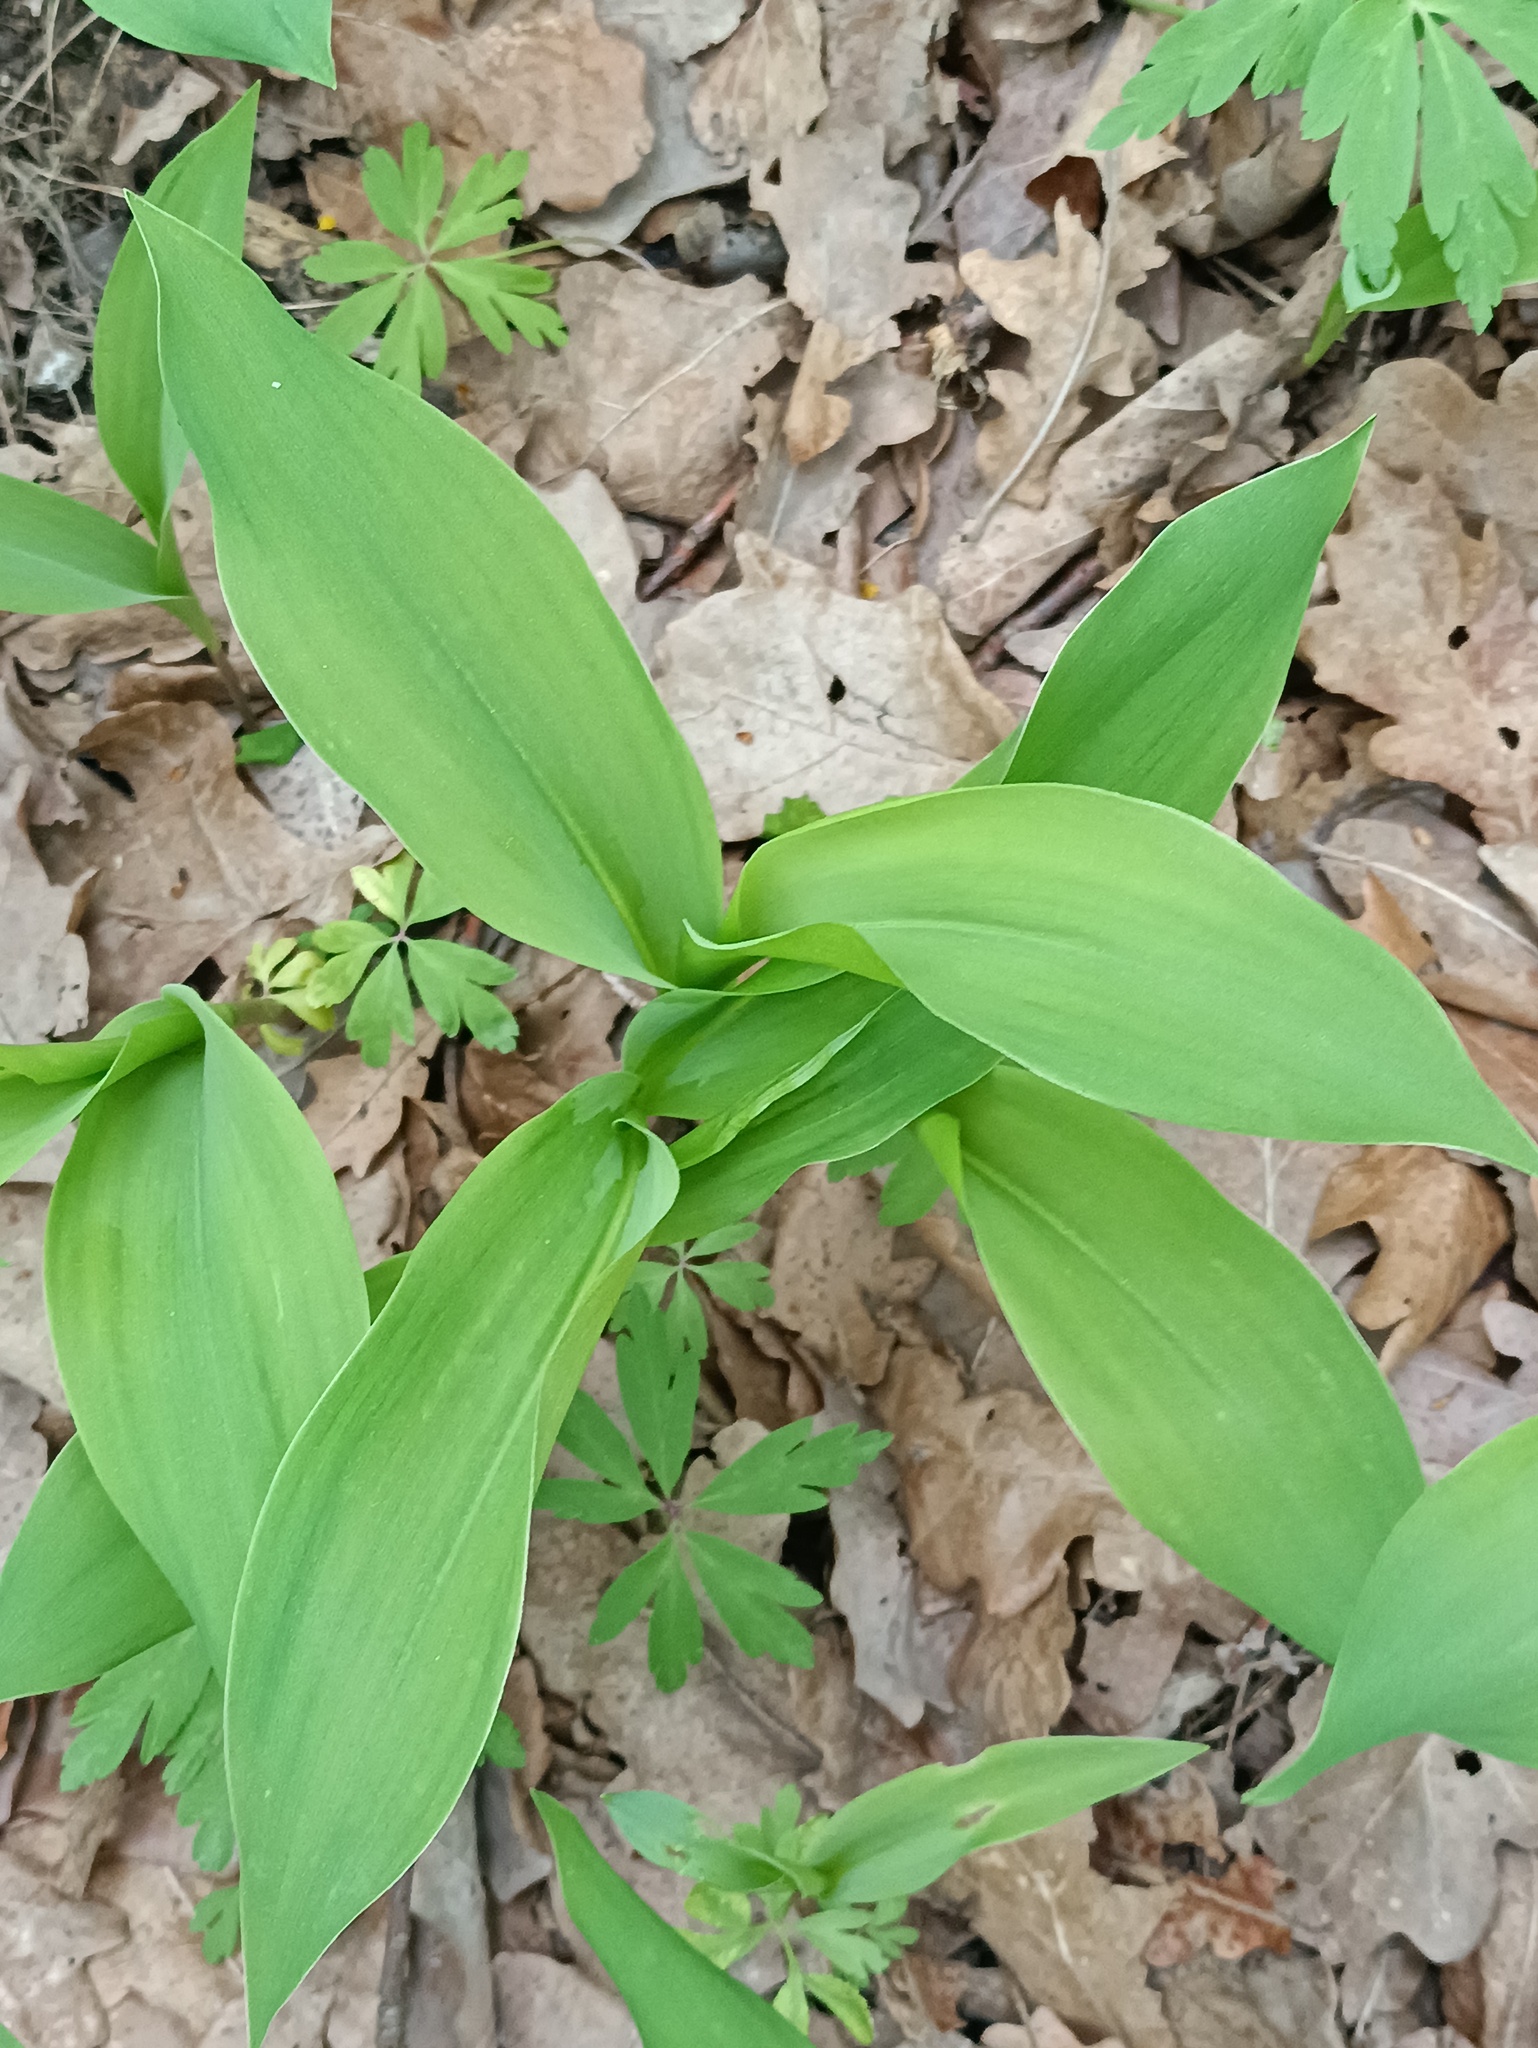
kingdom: Plantae
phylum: Tracheophyta
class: Liliopsida
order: Asparagales
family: Asparagaceae
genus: Convallaria
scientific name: Convallaria majalis
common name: Lily-of-the-valley
